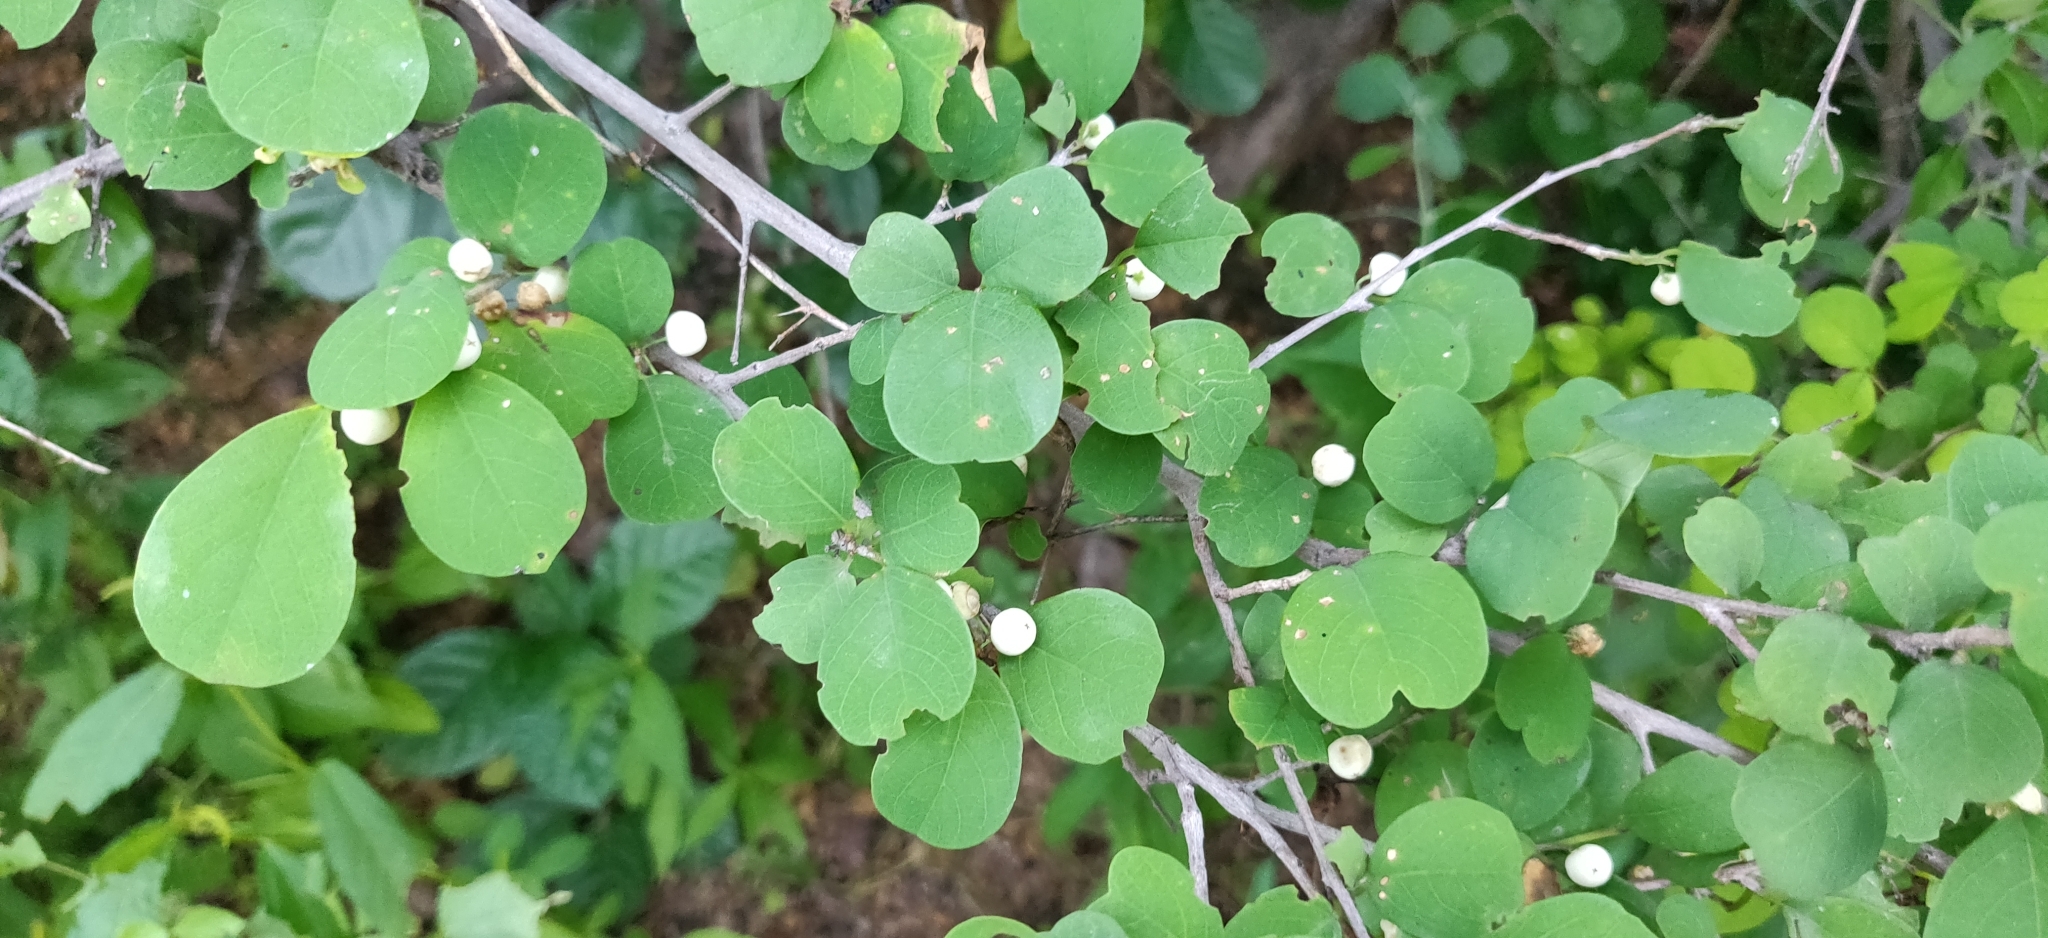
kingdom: Plantae
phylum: Tracheophyta
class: Magnoliopsida
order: Malpighiales
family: Phyllanthaceae
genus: Flueggea
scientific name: Flueggea leucopyrus
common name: Bushweed
